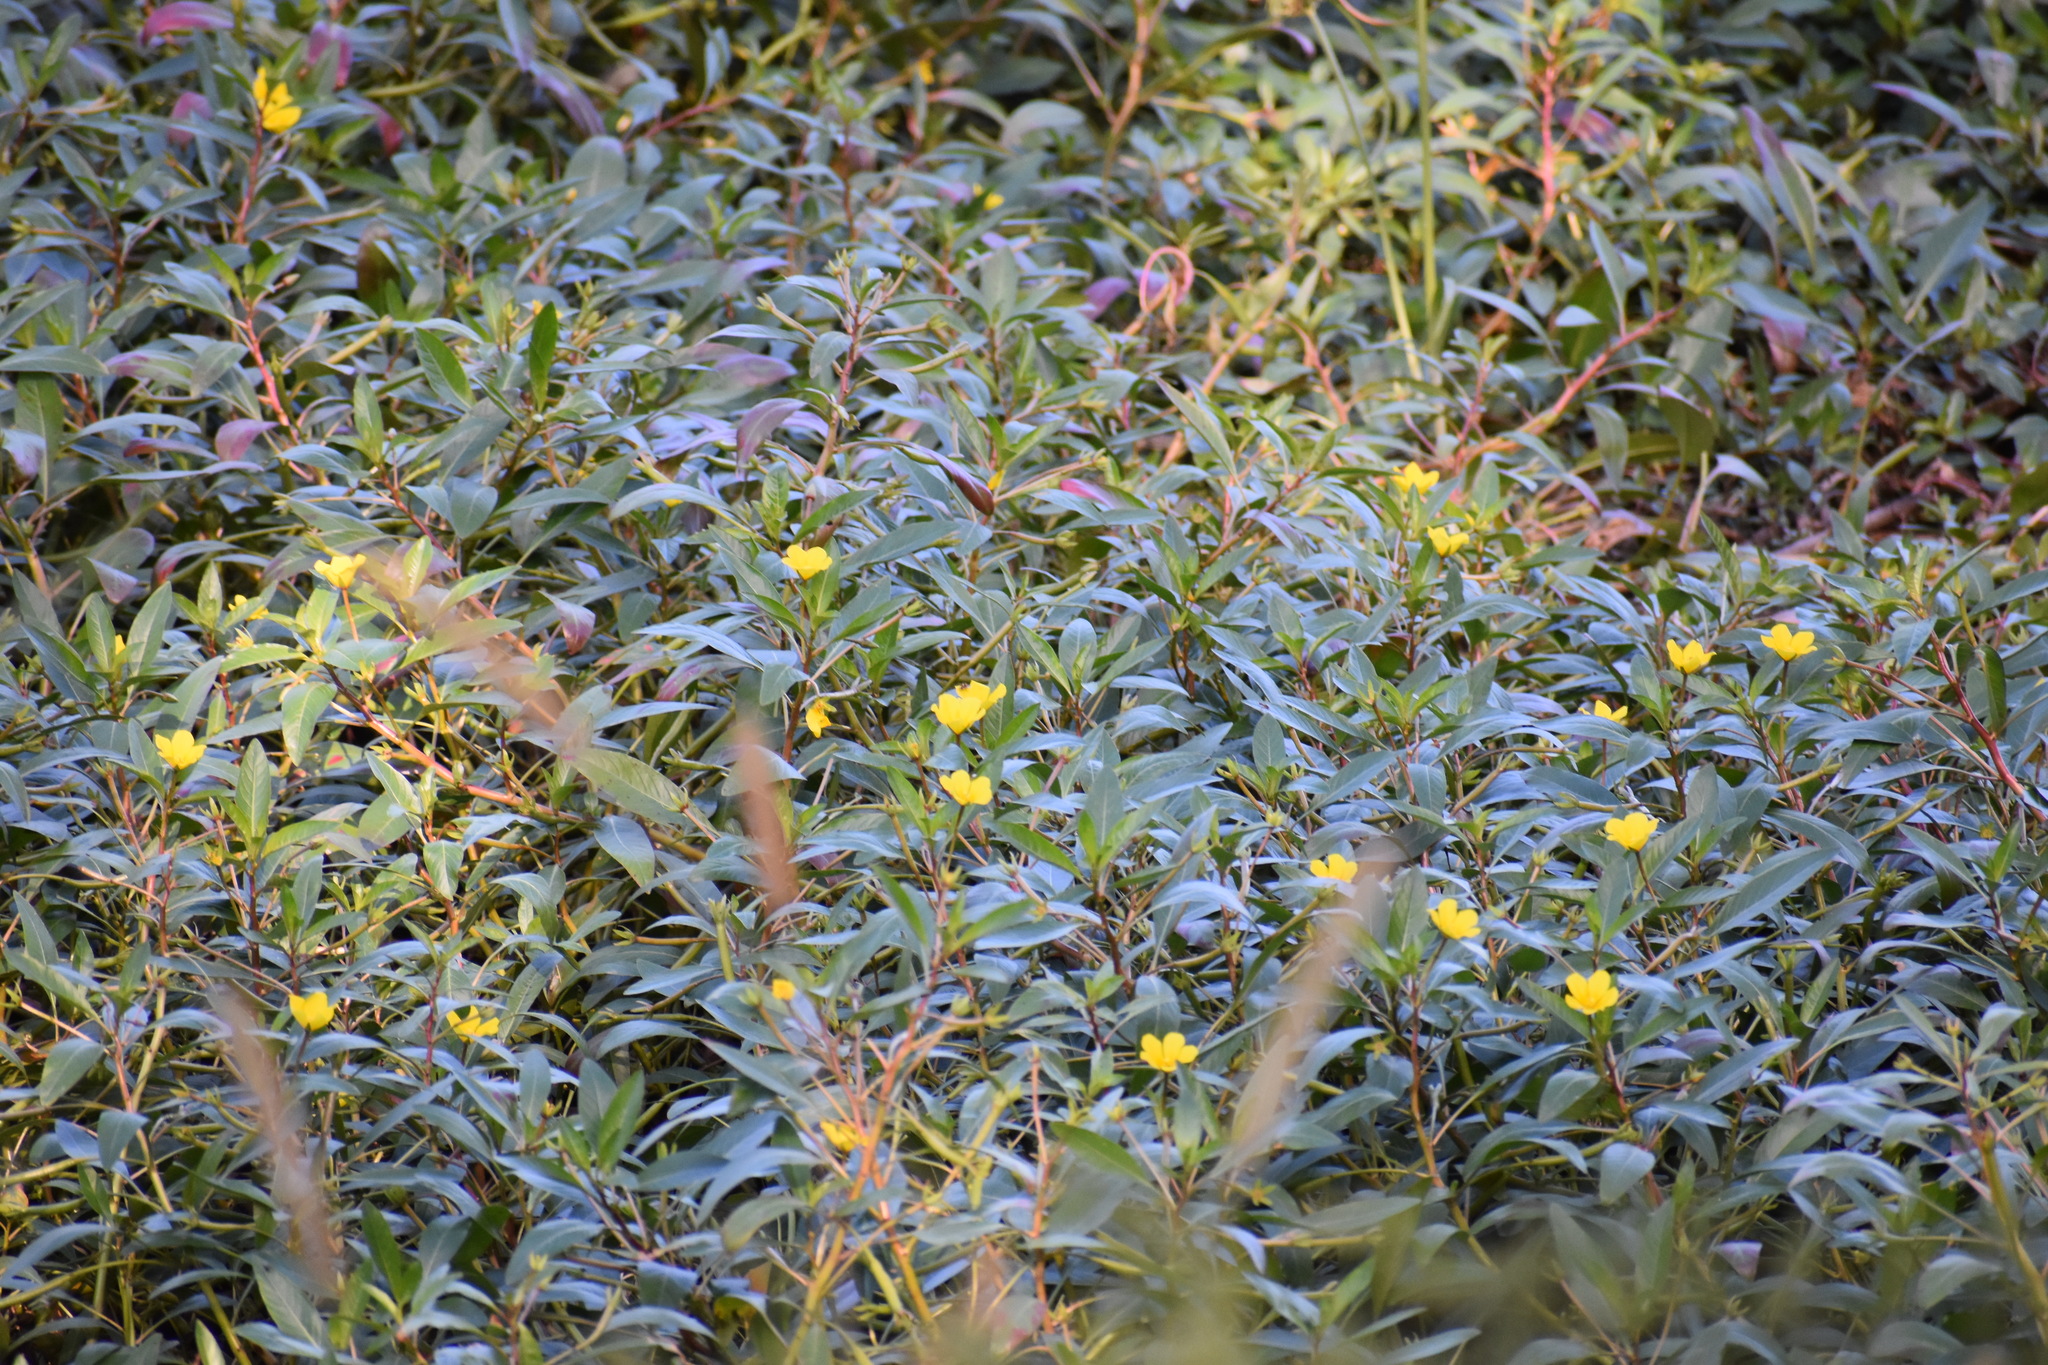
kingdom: Plantae
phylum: Tracheophyta
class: Magnoliopsida
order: Myrtales
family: Onagraceae
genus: Ludwigia
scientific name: Ludwigia peploides
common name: Floating primrose-willow
